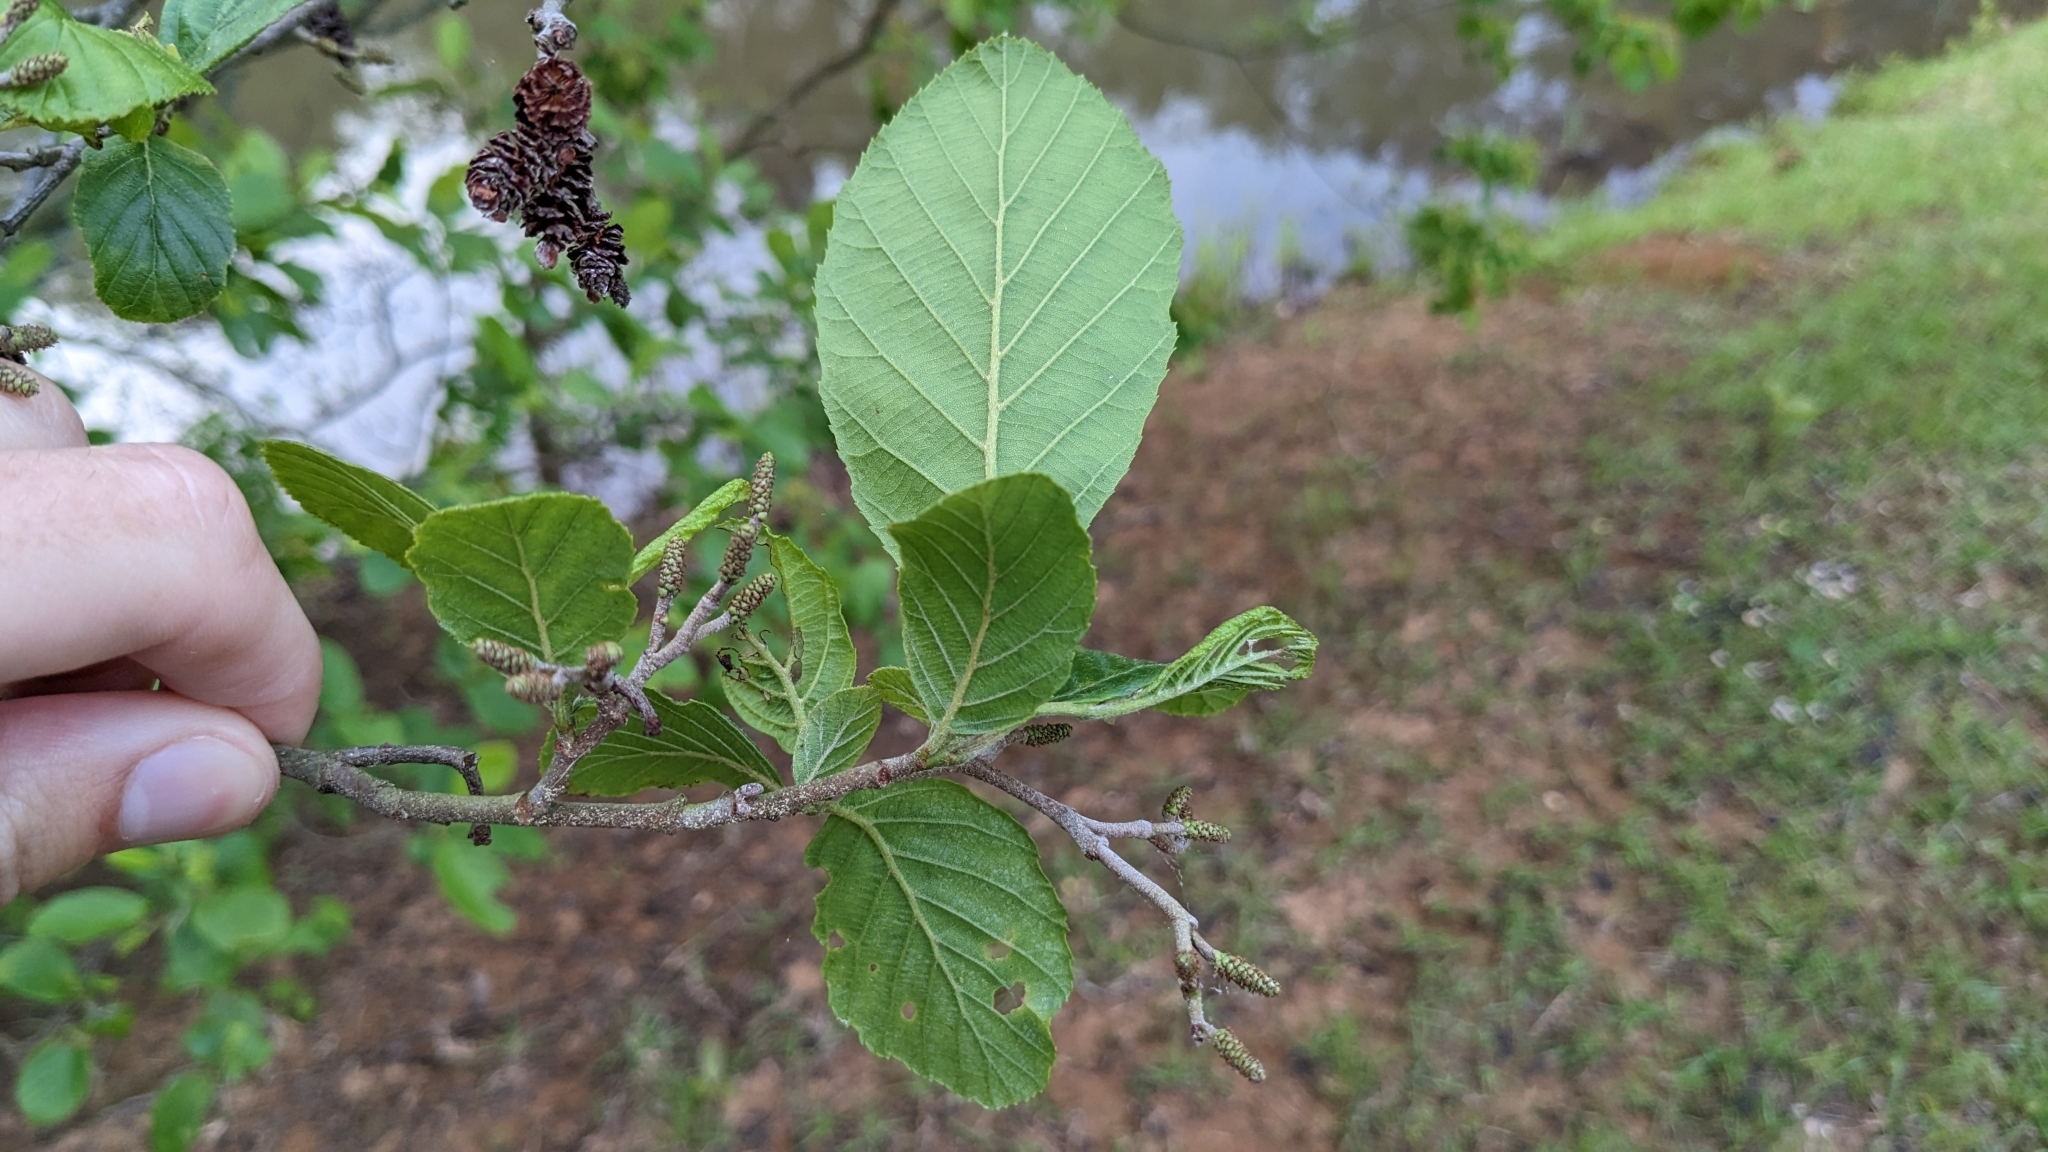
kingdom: Plantae
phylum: Tracheophyta
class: Magnoliopsida
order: Fagales
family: Betulaceae
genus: Alnus
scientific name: Alnus serrulata
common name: Hazel alder
